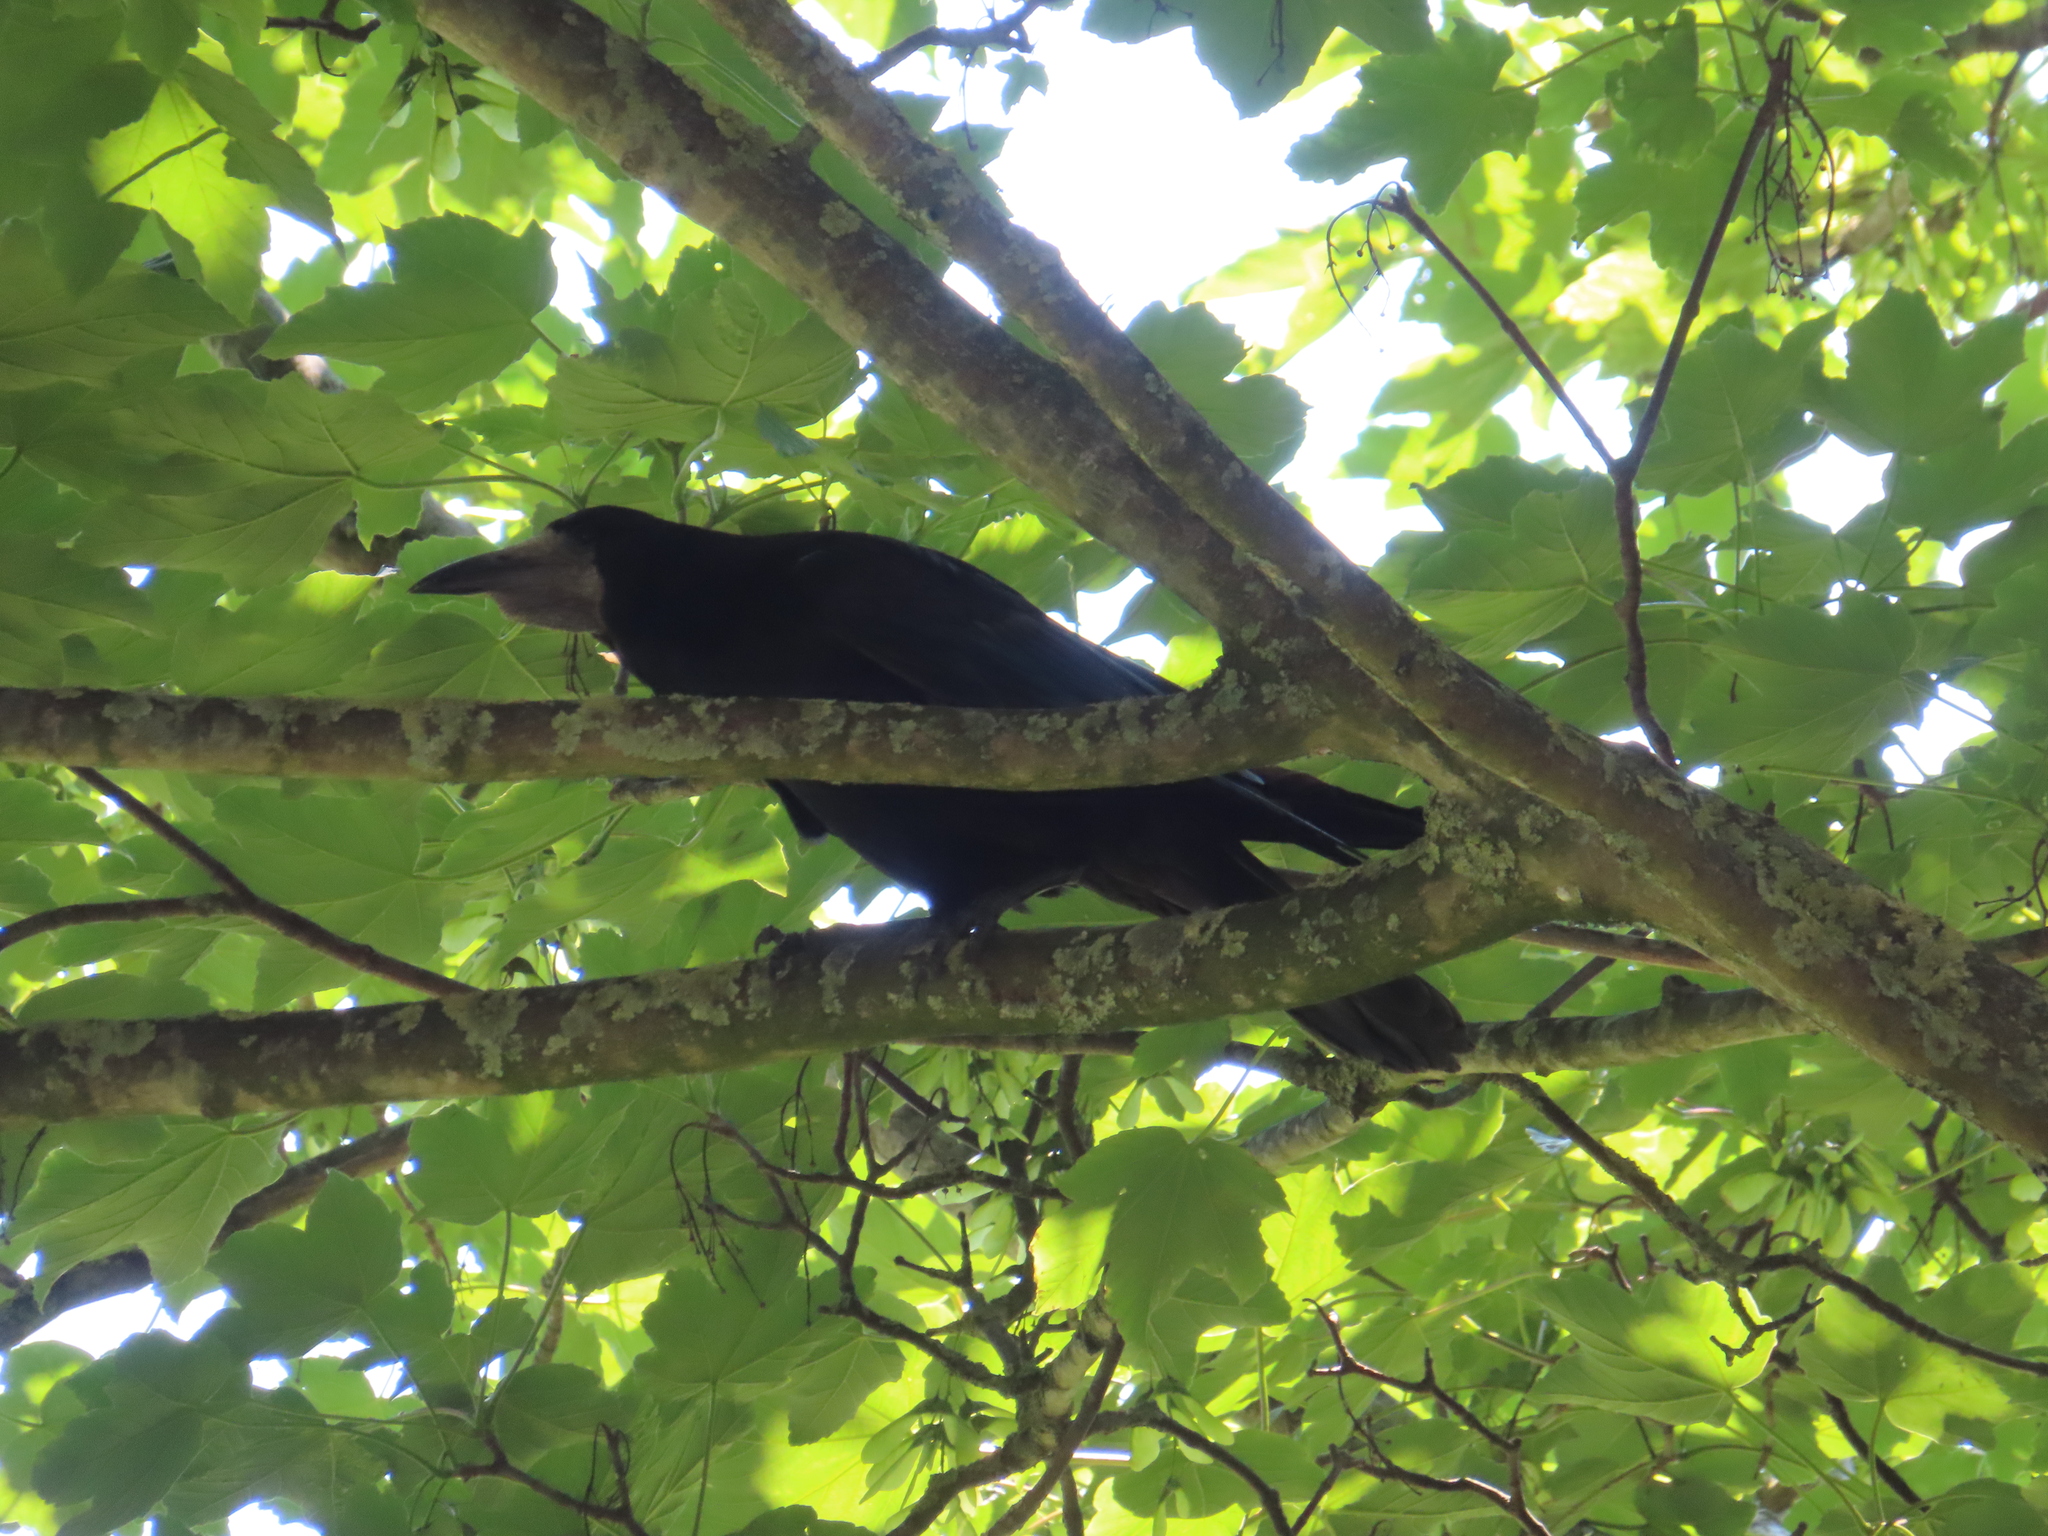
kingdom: Animalia
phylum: Chordata
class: Aves
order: Passeriformes
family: Corvidae
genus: Corvus
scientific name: Corvus frugilegus
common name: Rook
